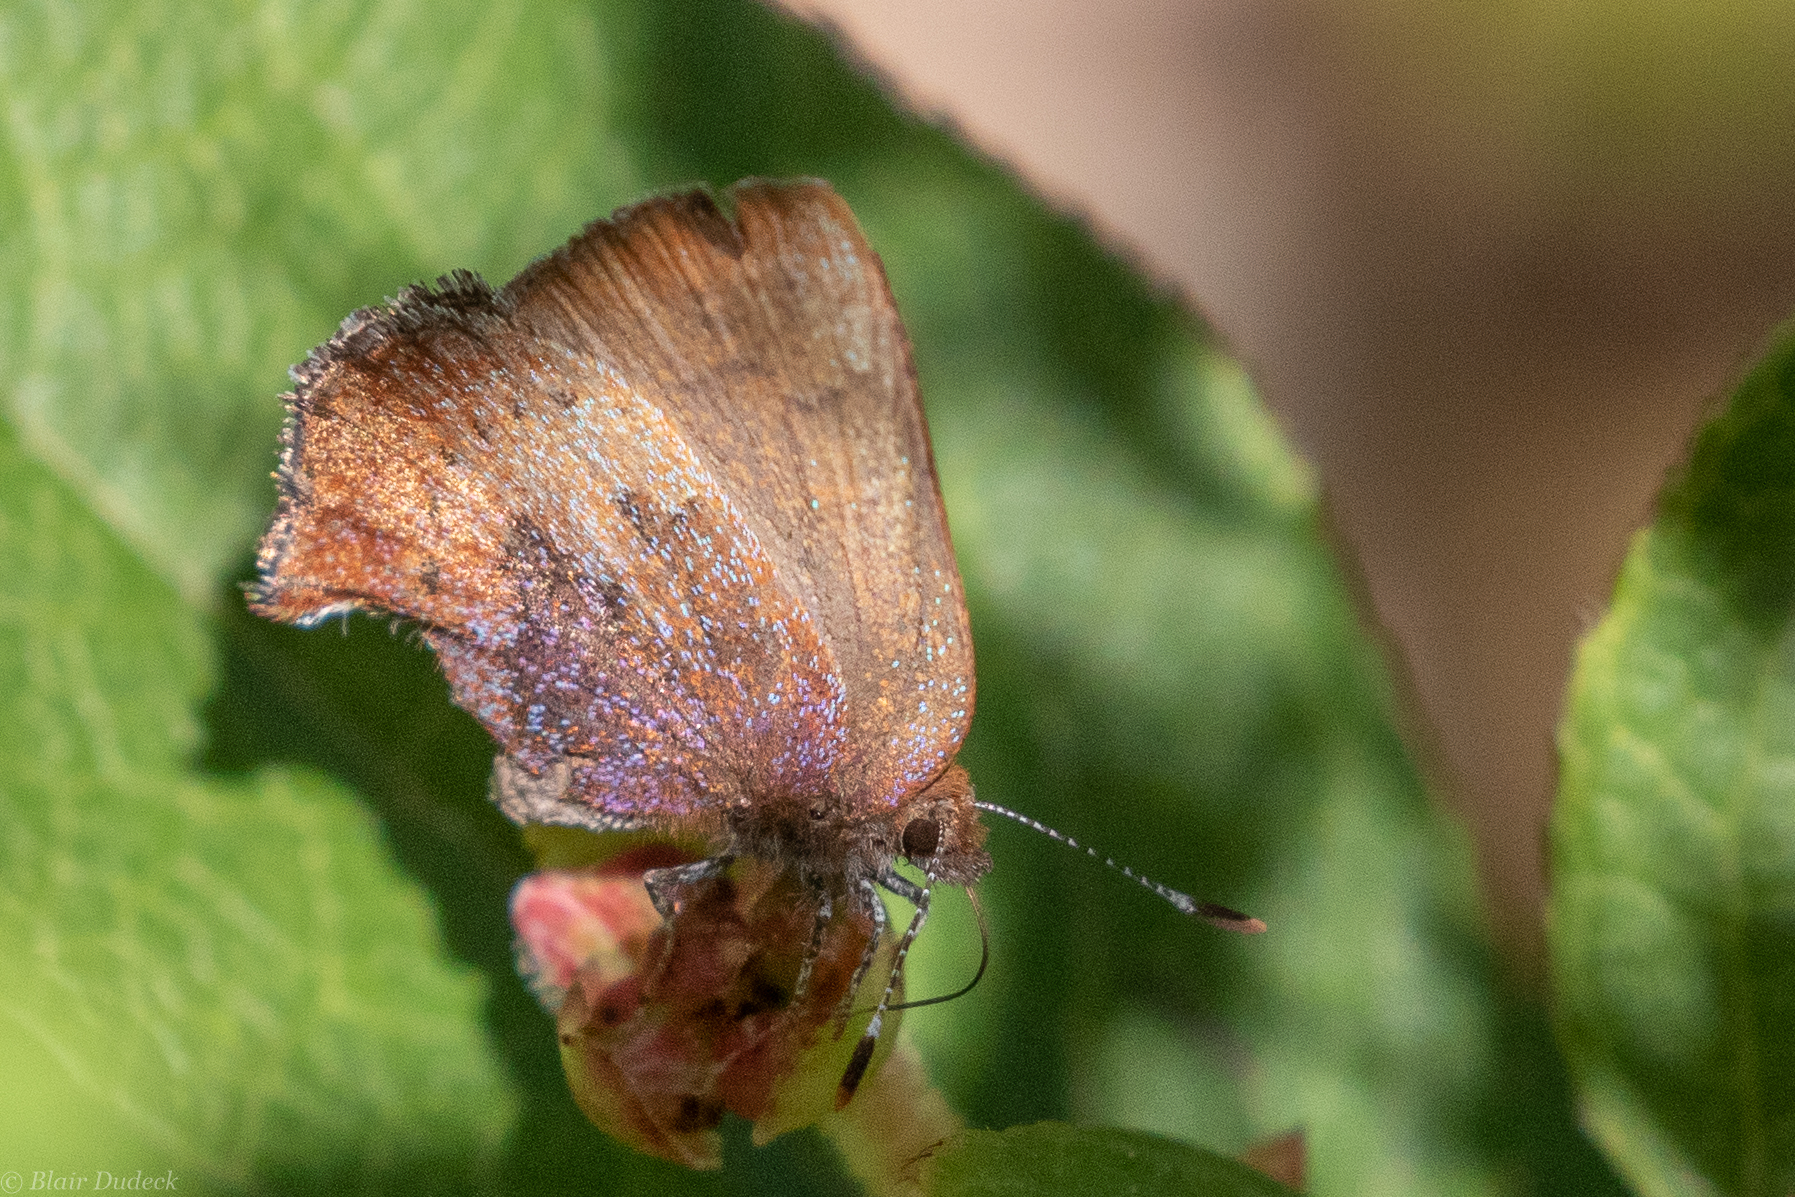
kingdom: Animalia
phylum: Arthropoda
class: Insecta
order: Lepidoptera
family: Lycaenidae
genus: Incisalia
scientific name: Incisalia irioides
